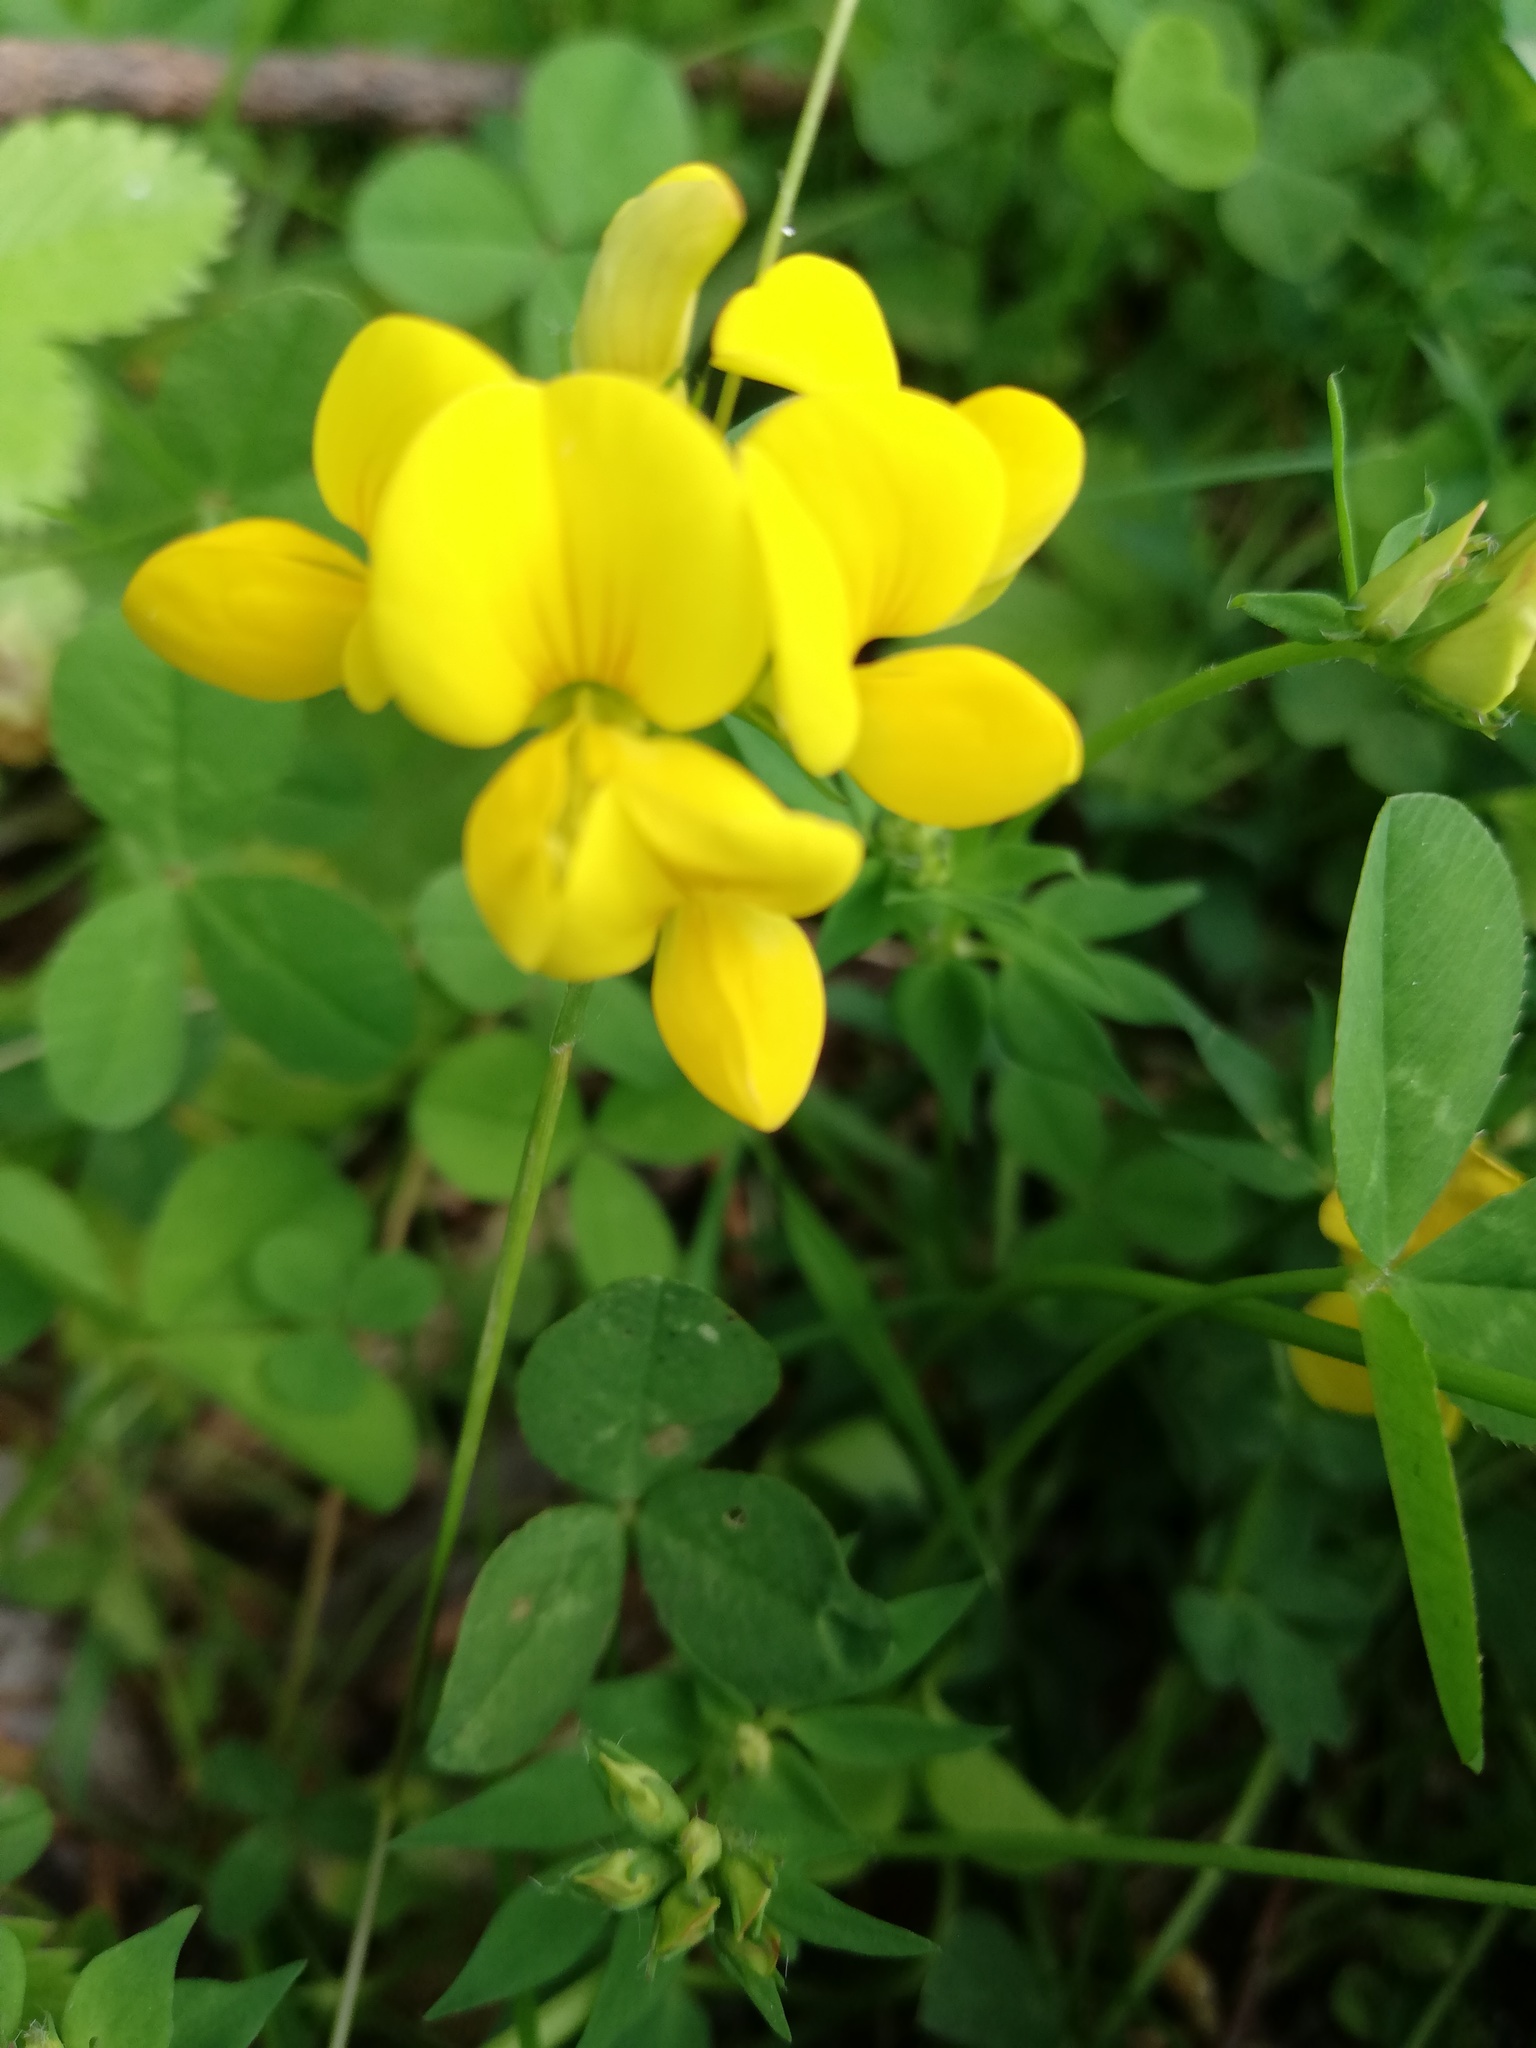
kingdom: Plantae
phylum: Tracheophyta
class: Magnoliopsida
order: Fabales
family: Fabaceae
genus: Lotus
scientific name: Lotus corniculatus
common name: Common bird's-foot-trefoil
